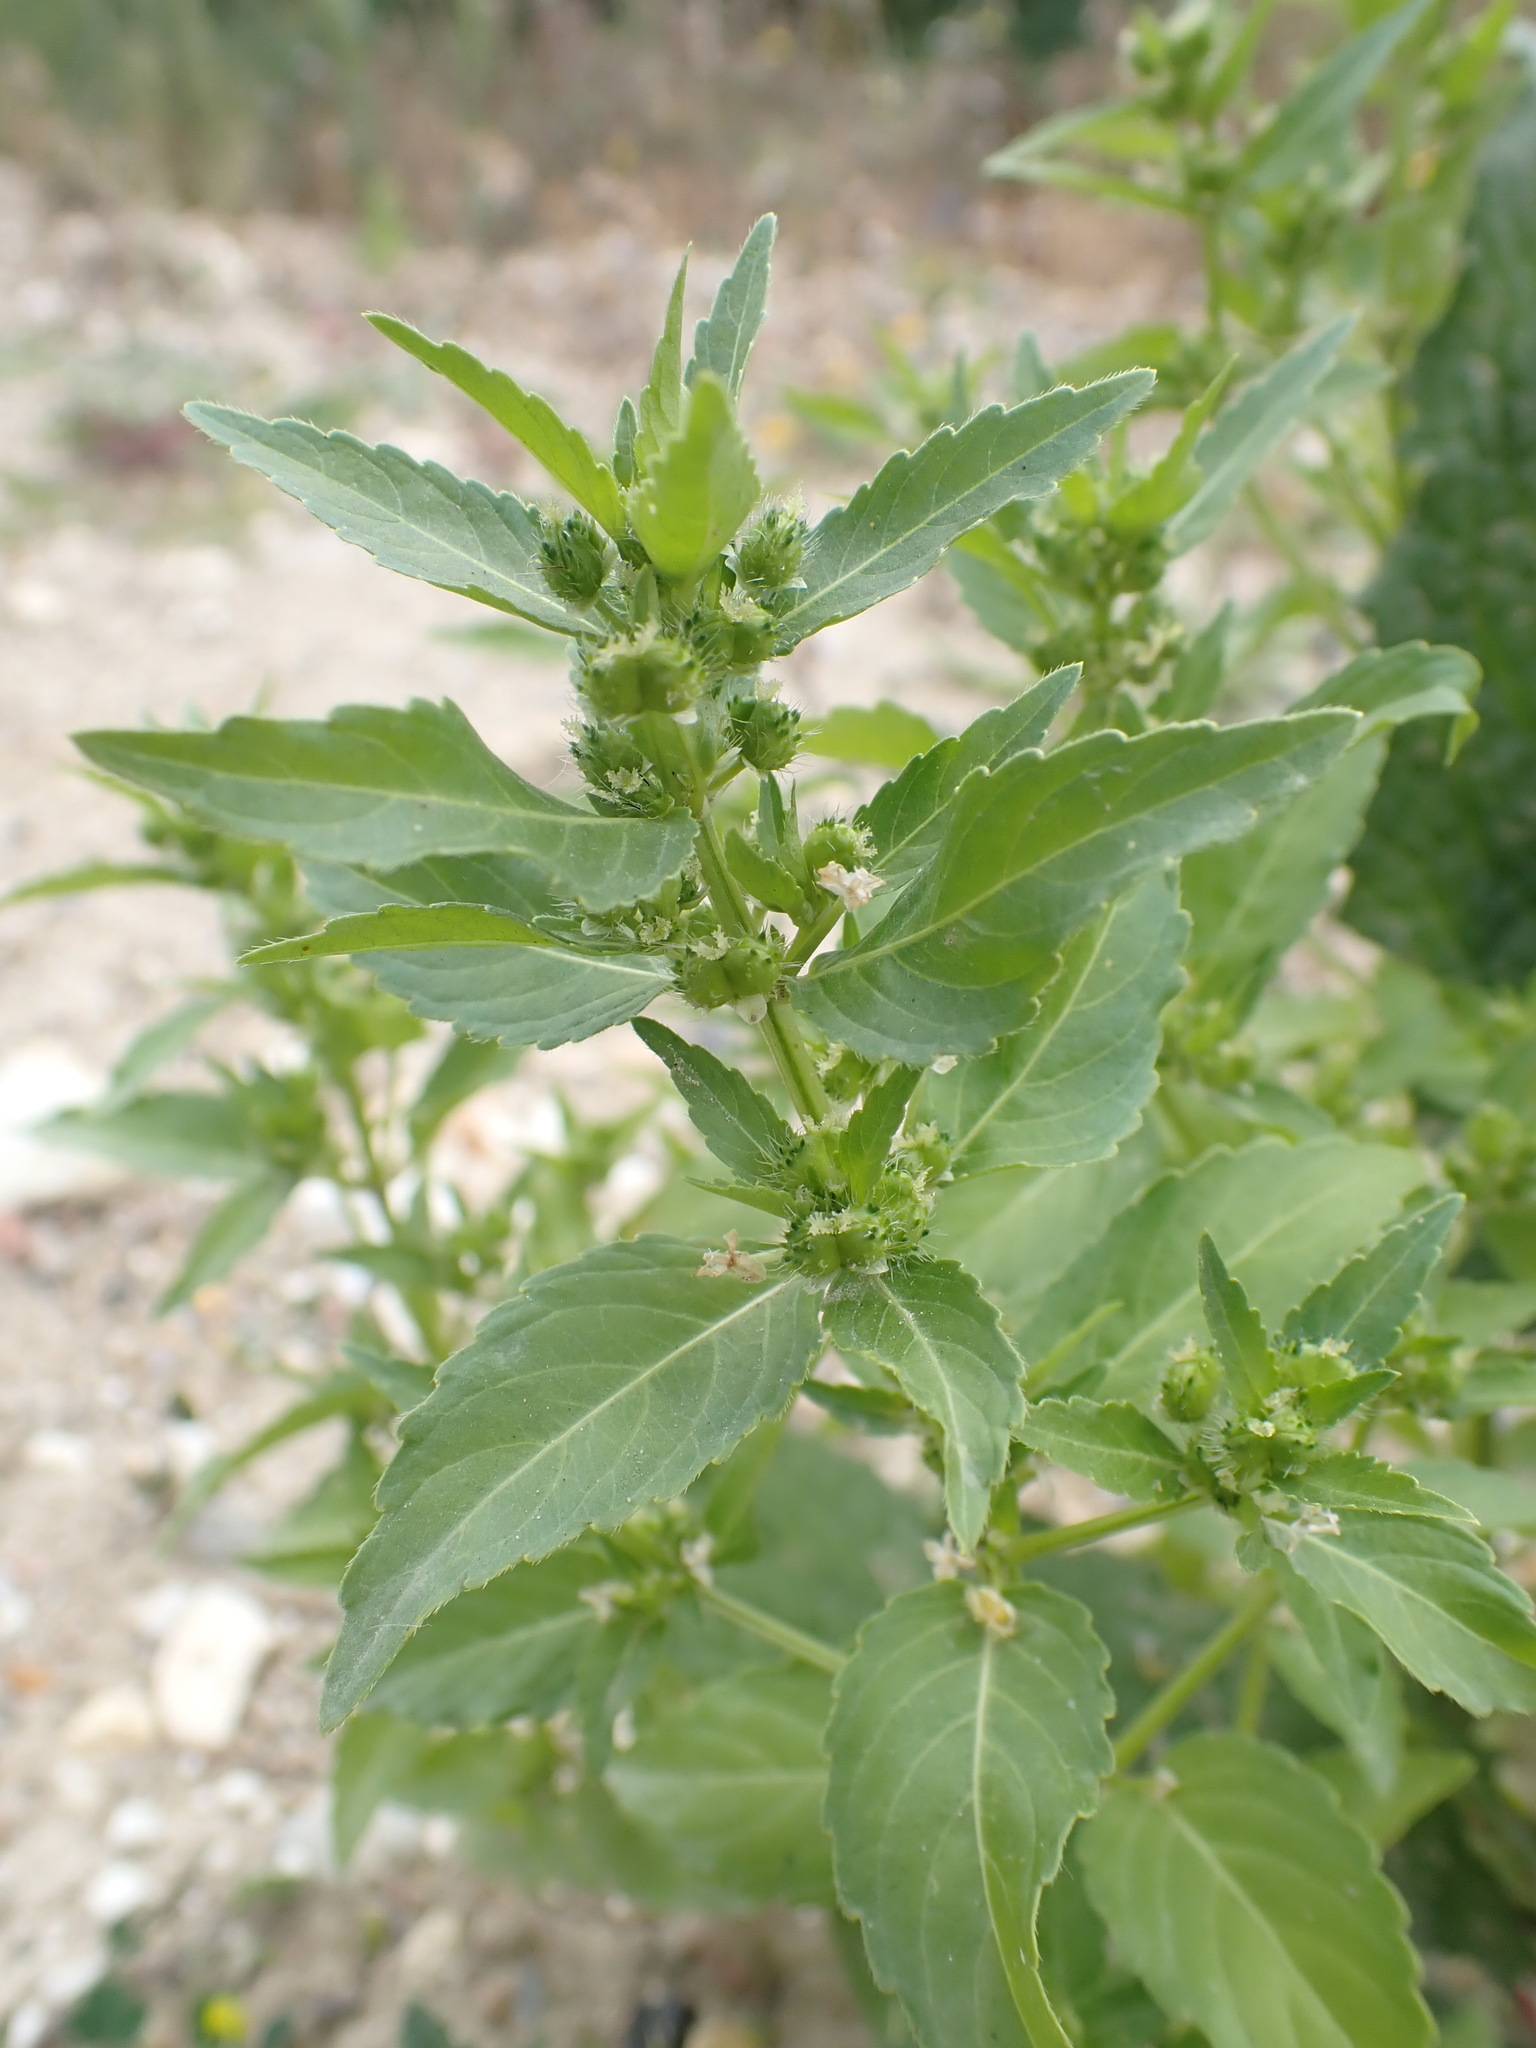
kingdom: Plantae
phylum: Tracheophyta
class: Magnoliopsida
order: Malpighiales
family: Euphorbiaceae
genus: Mercurialis
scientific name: Mercurialis annua
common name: Annual mercury
